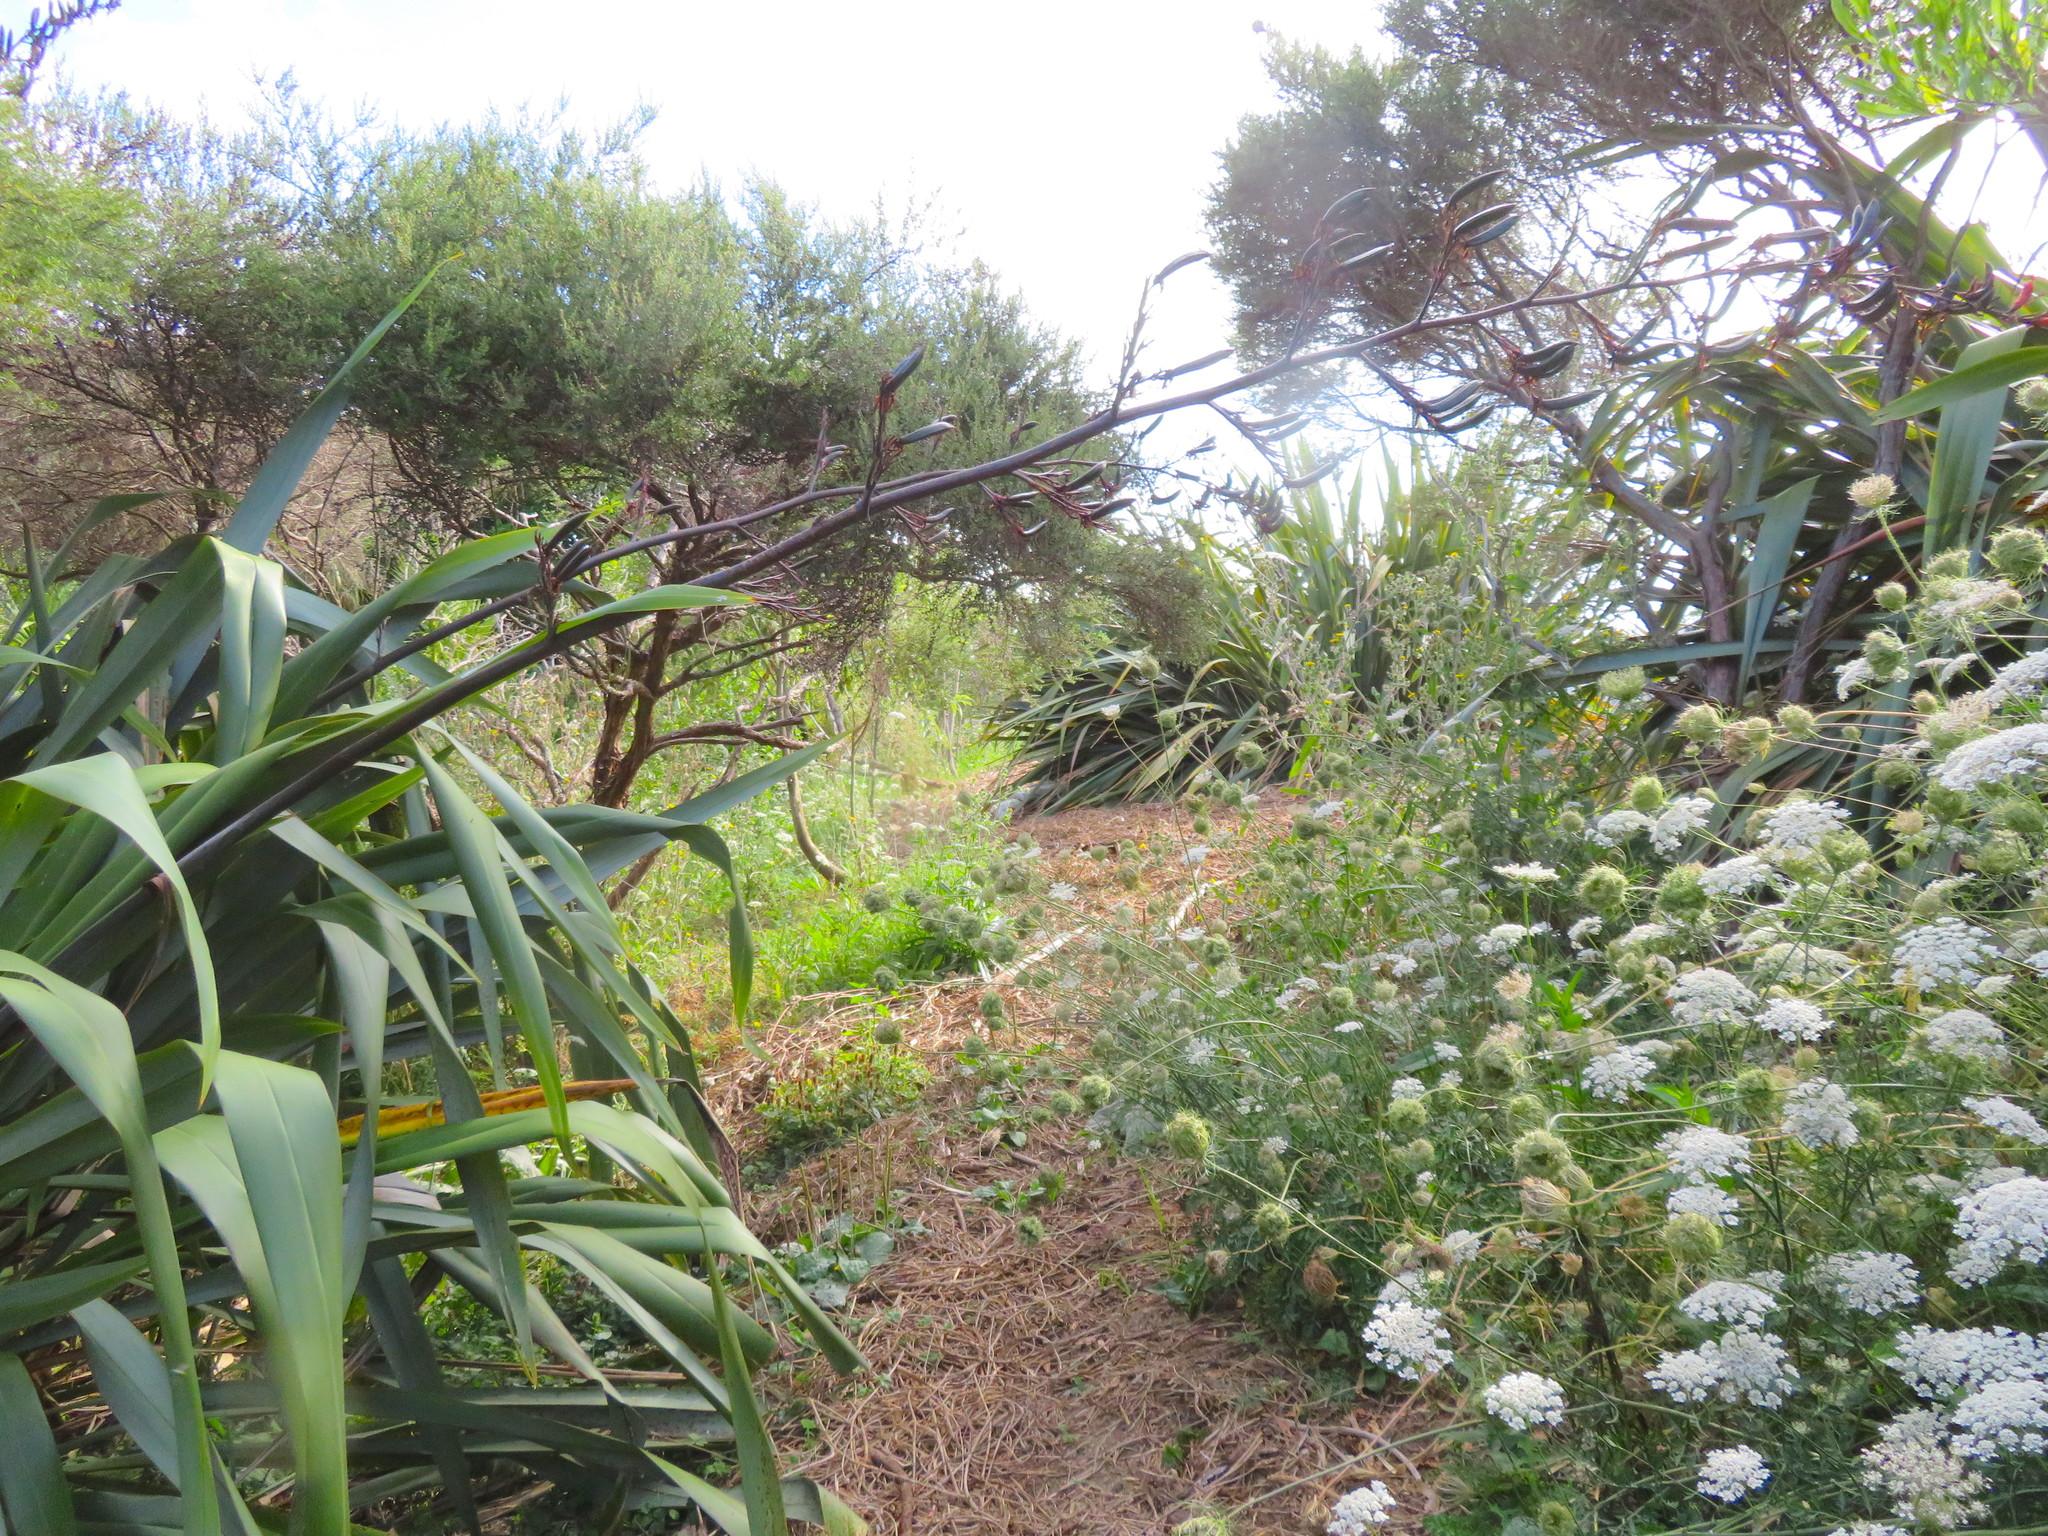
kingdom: Plantae
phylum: Tracheophyta
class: Magnoliopsida
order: Apiales
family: Apiaceae
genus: Daucus
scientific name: Daucus carota
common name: Wild carrot
